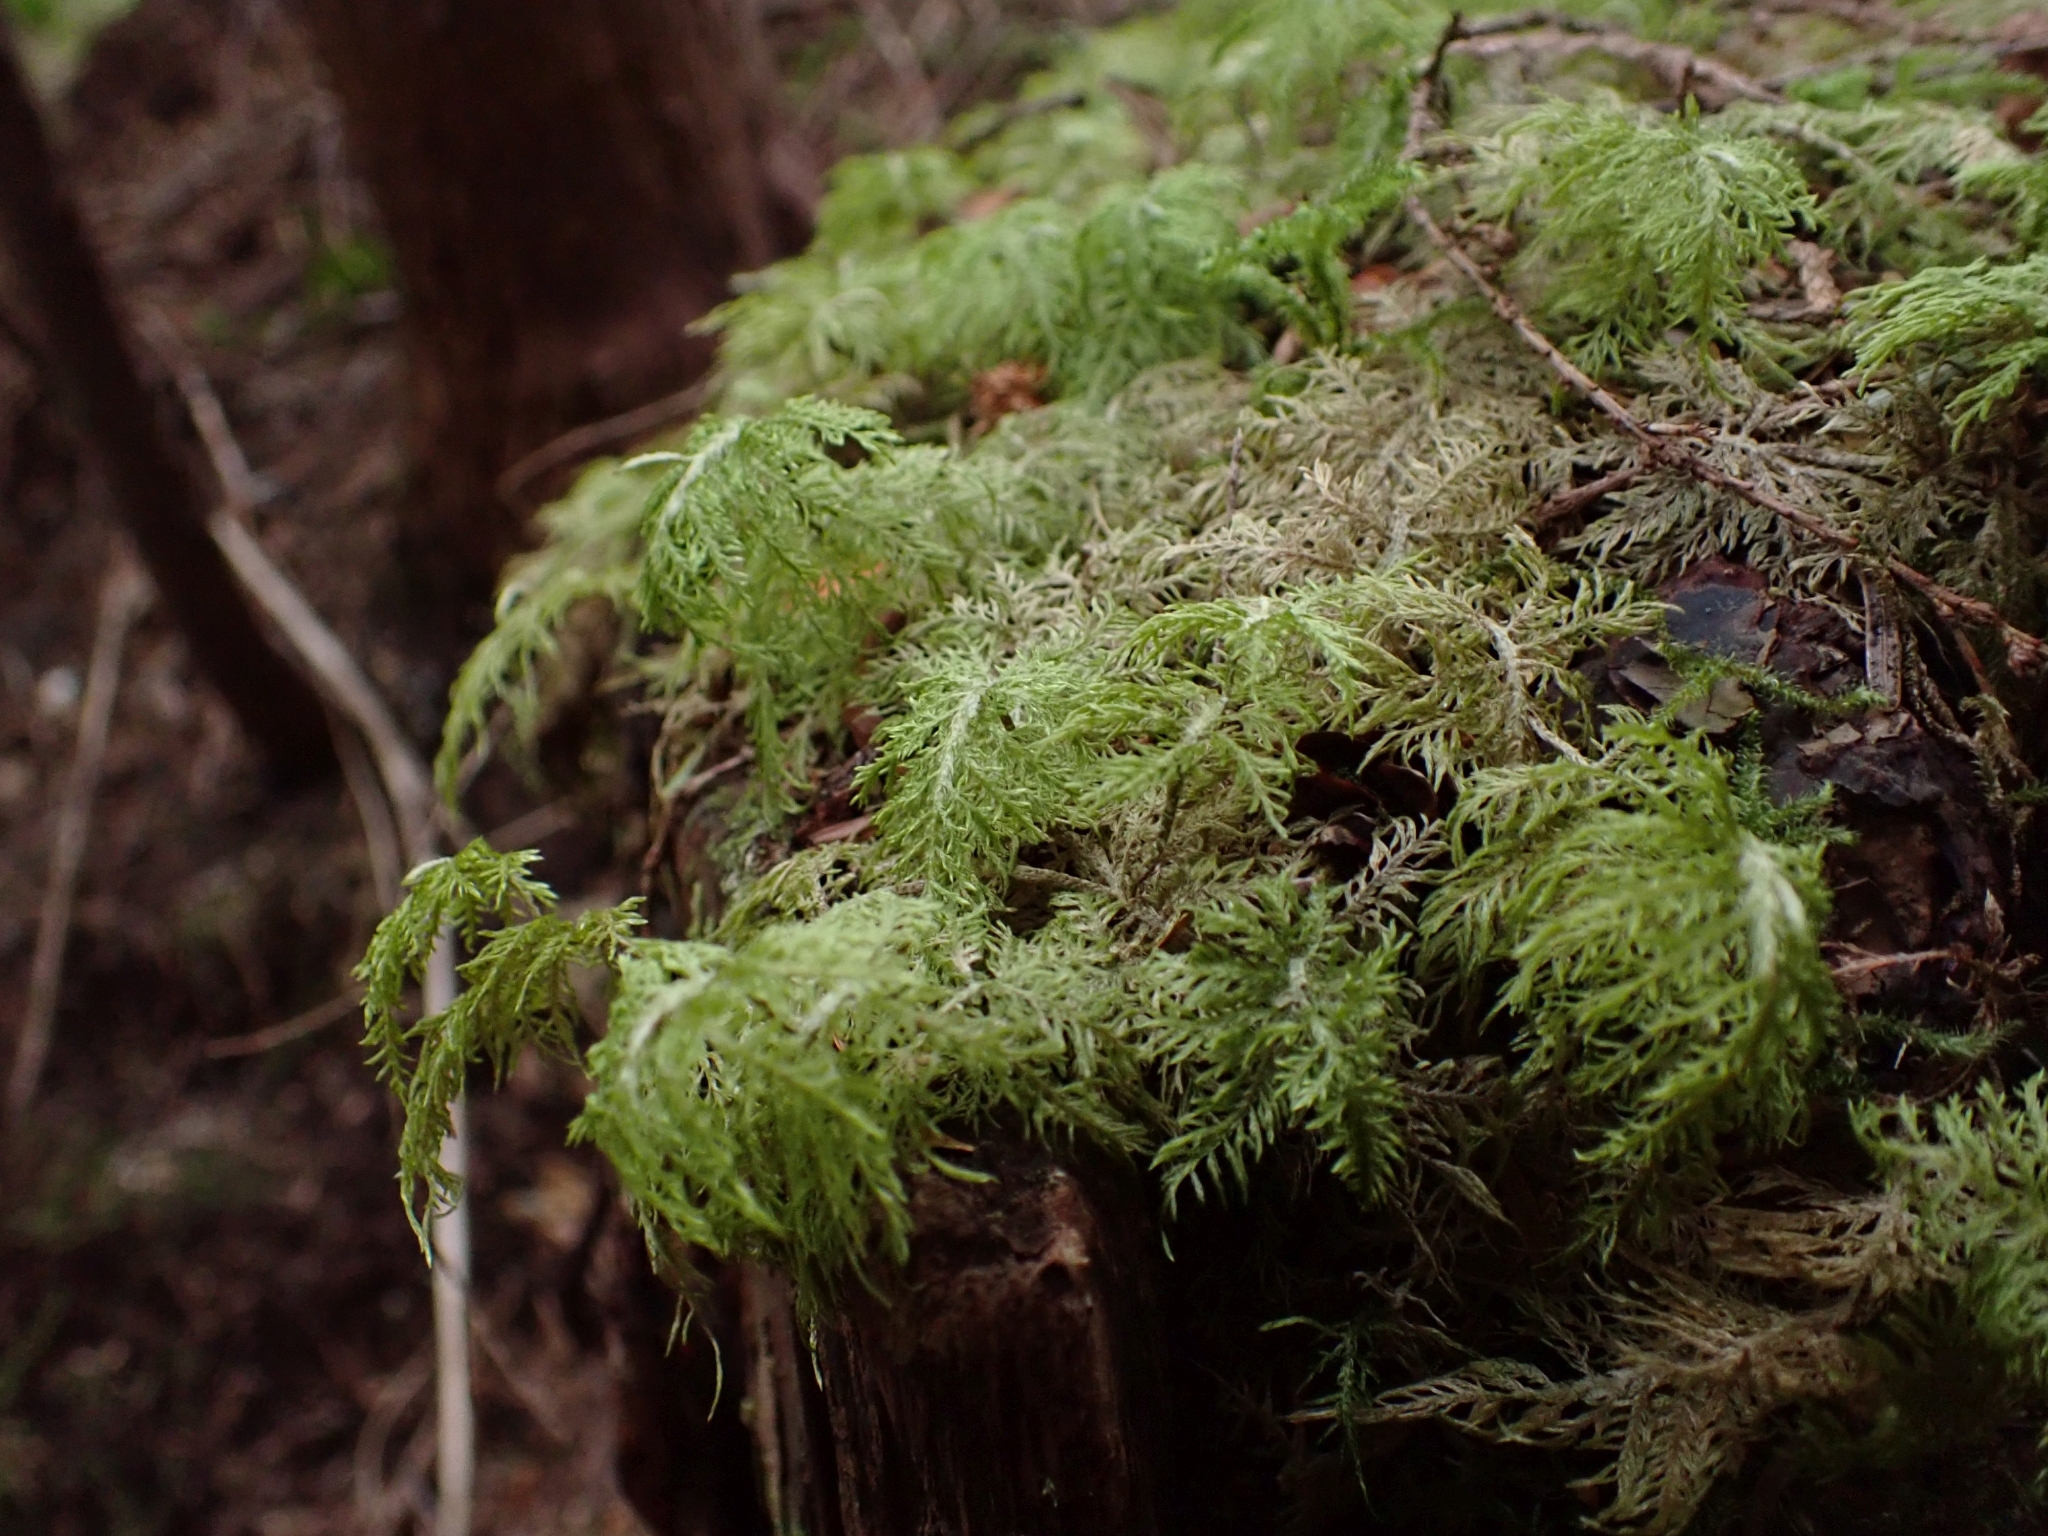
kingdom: Plantae
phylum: Bryophyta
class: Bryopsida
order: Hypnales
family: Hylocomiaceae
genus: Hylocomium
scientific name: Hylocomium splendens
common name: Stairstep moss
